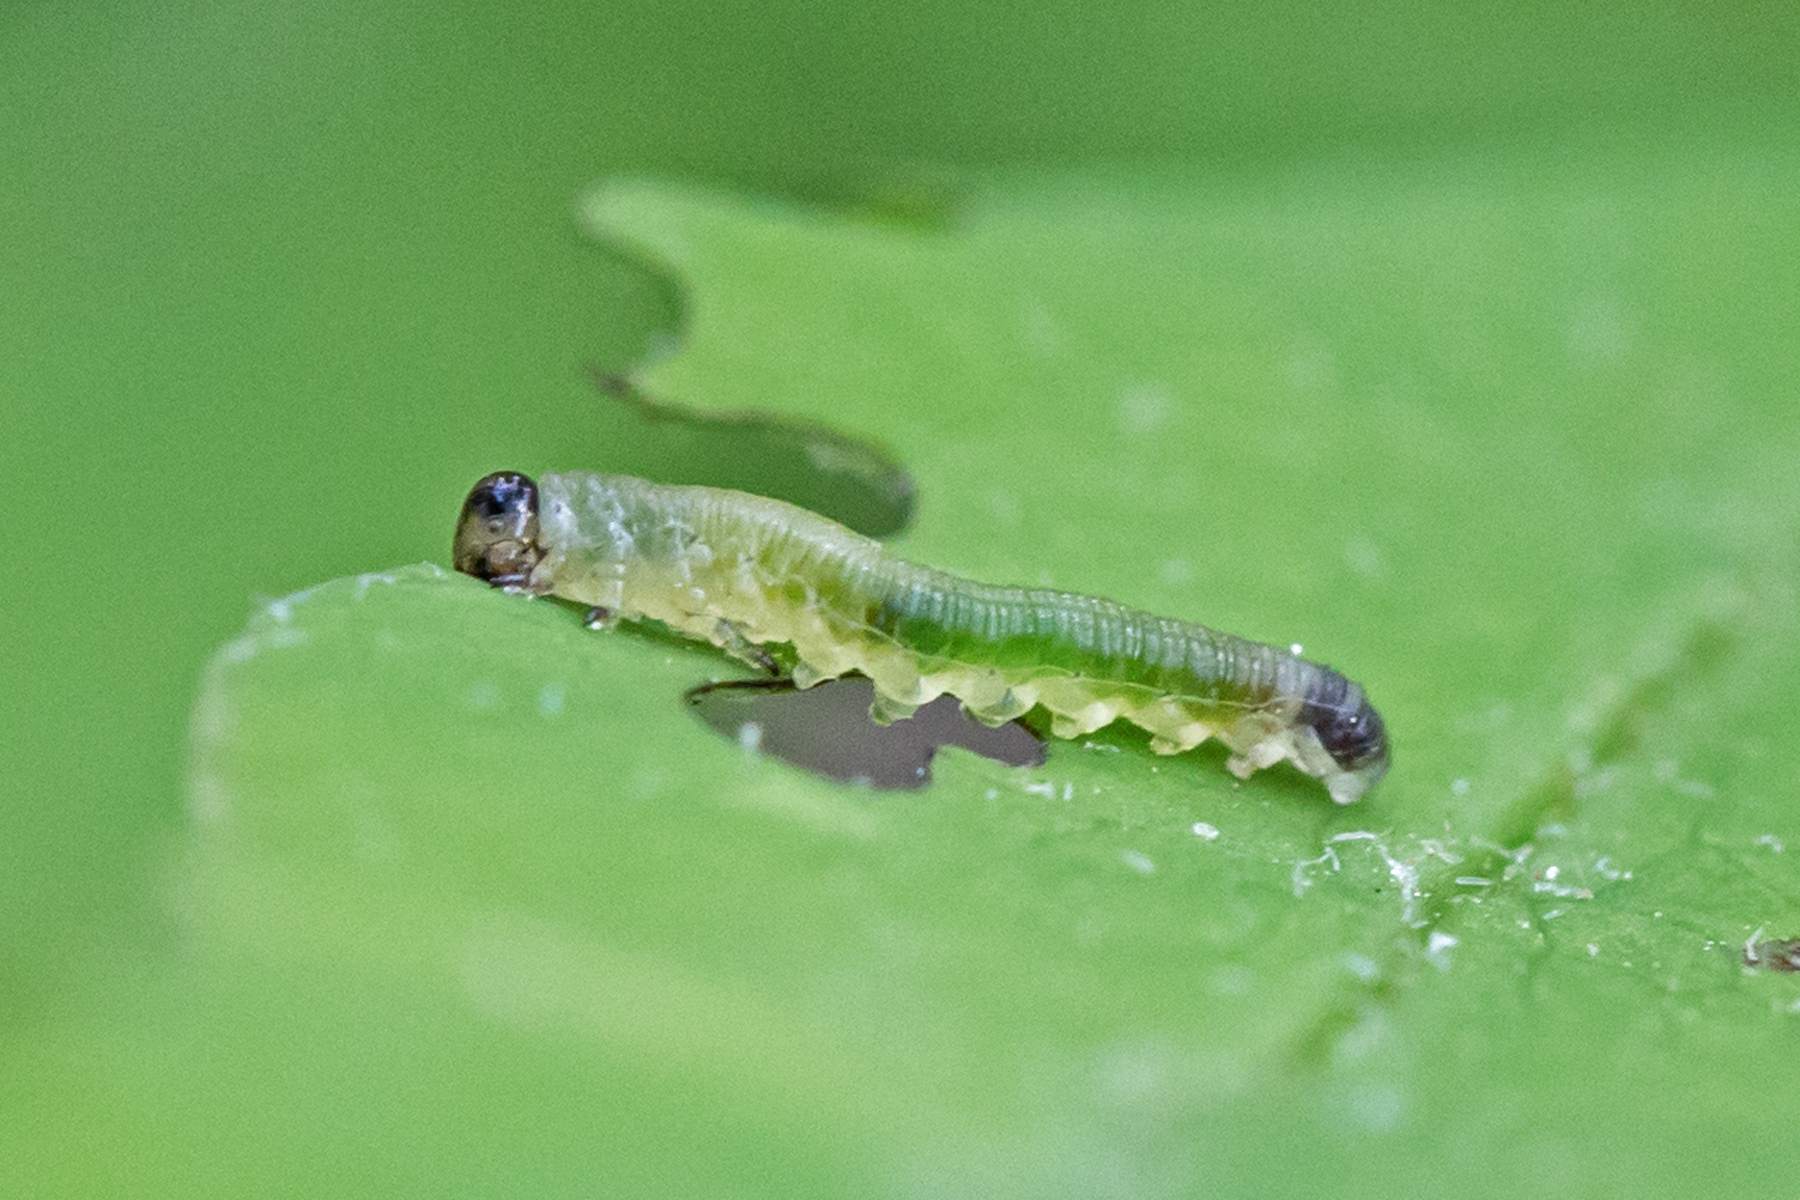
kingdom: Animalia
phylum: Arthropoda
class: Insecta
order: Hymenoptera
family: Tenthredinidae
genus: Thrinax
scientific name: Thrinax dubitata
